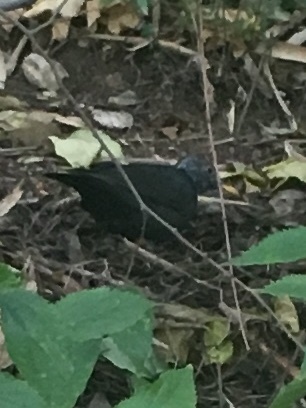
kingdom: Animalia
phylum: Chordata
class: Aves
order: Passeriformes
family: Turdidae
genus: Turdus
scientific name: Turdus merula
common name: Common blackbird
